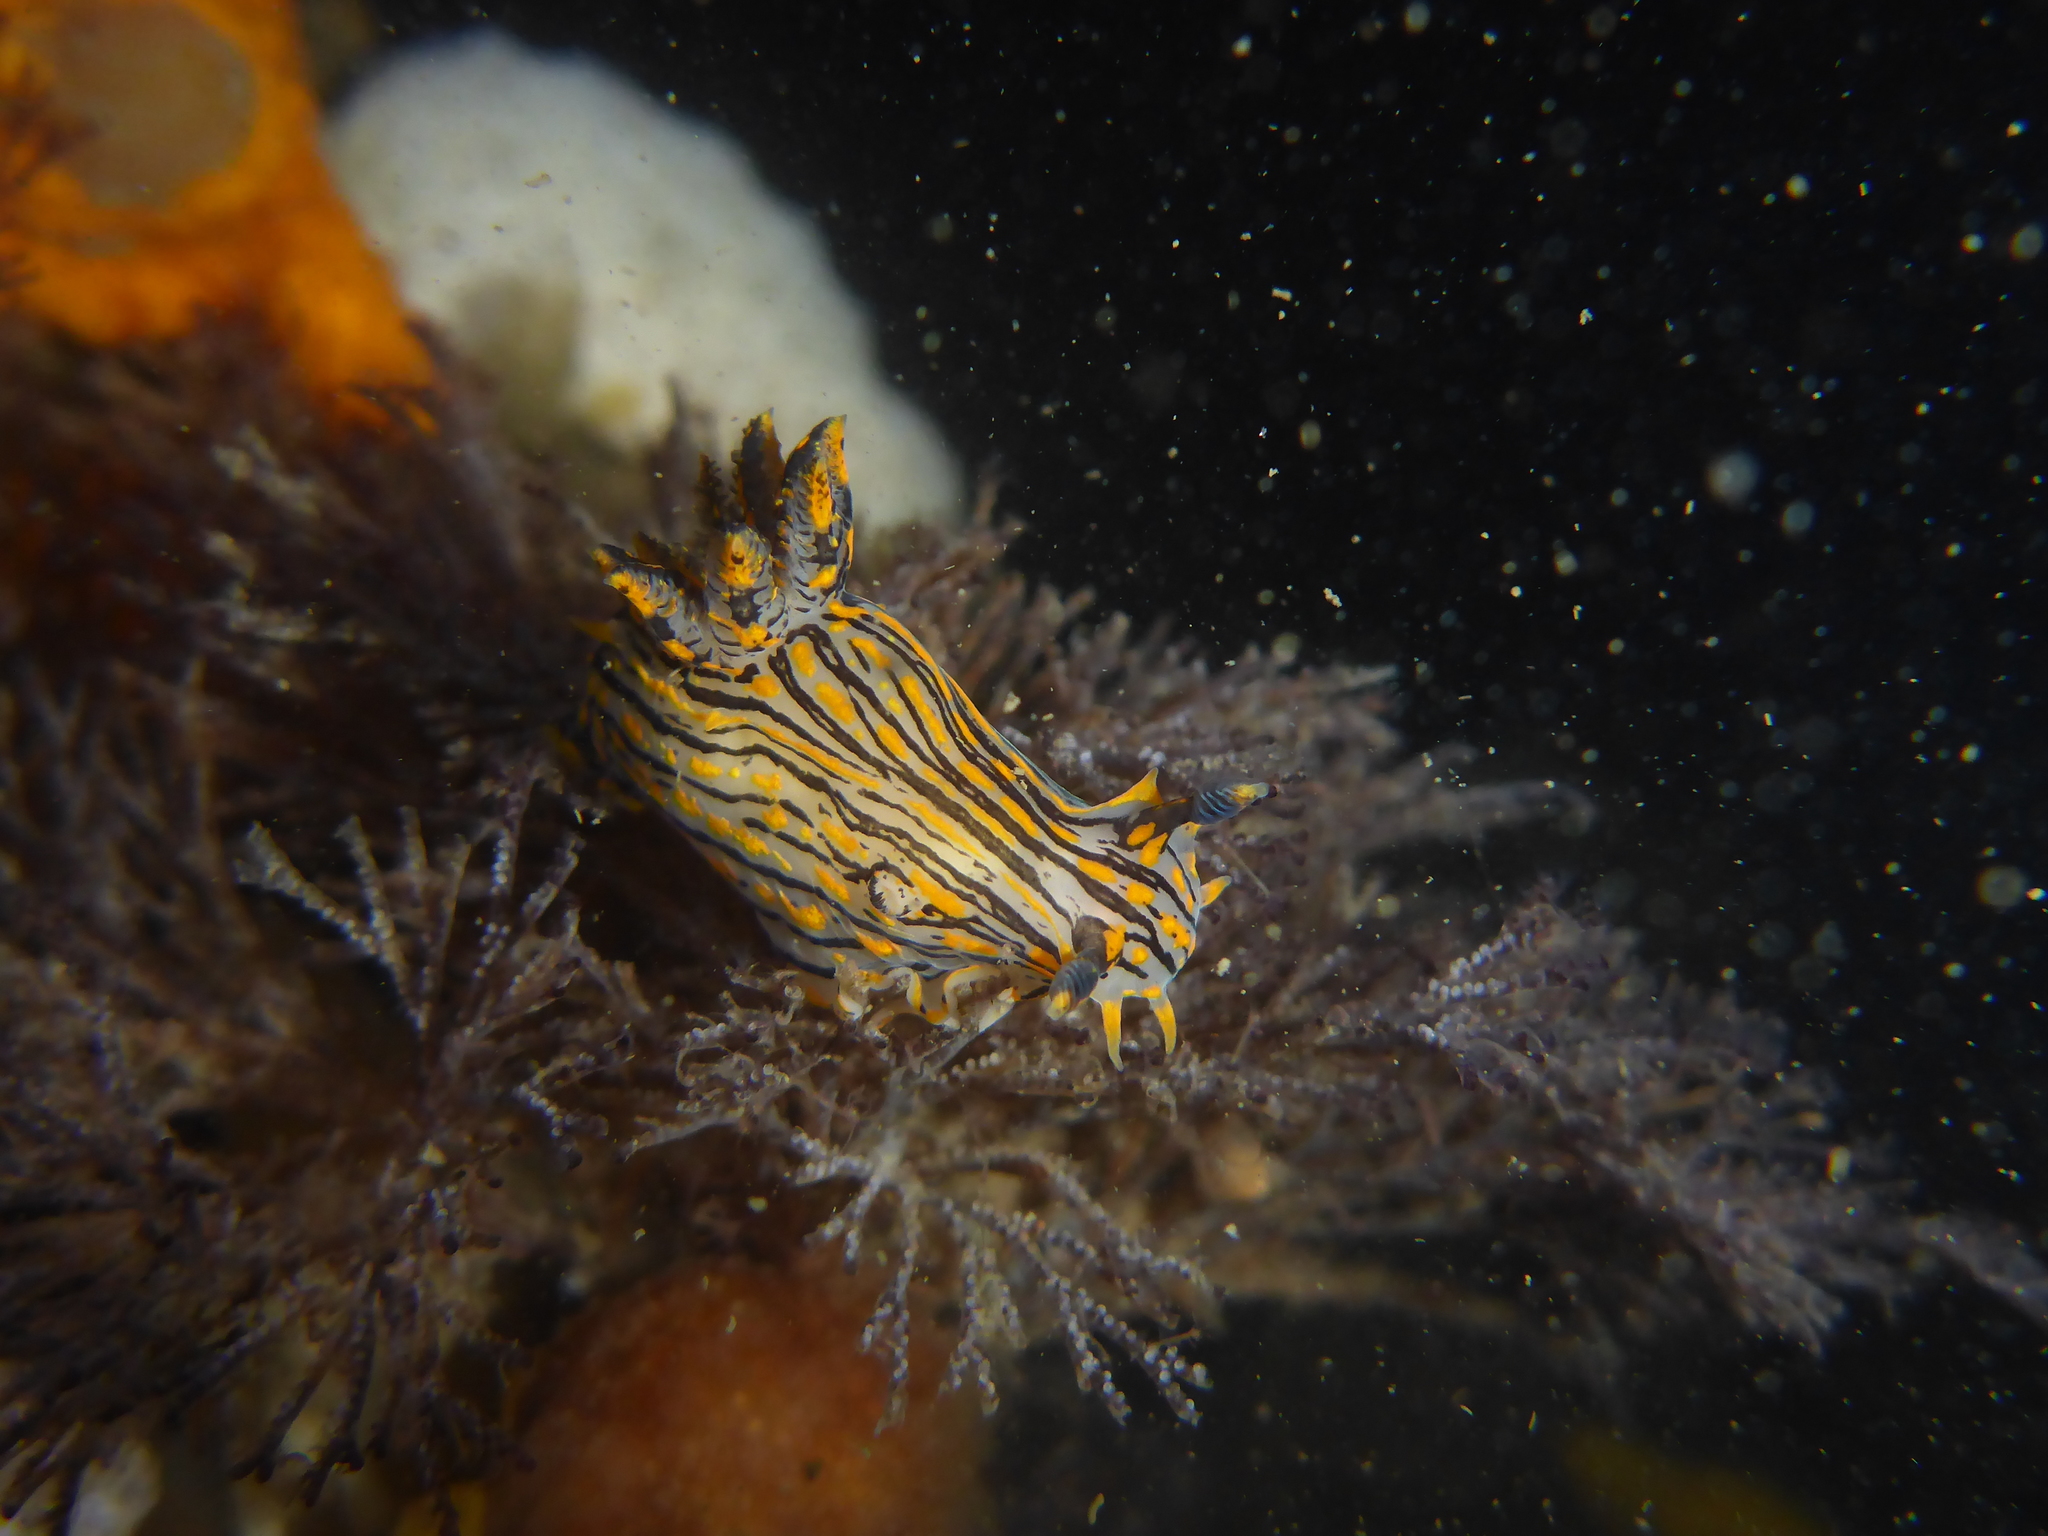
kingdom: Animalia
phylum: Mollusca
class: Gastropoda
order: Nudibranchia
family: Polyceridae
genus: Polycera
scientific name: Polycera atra
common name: Orange-spike polycera
